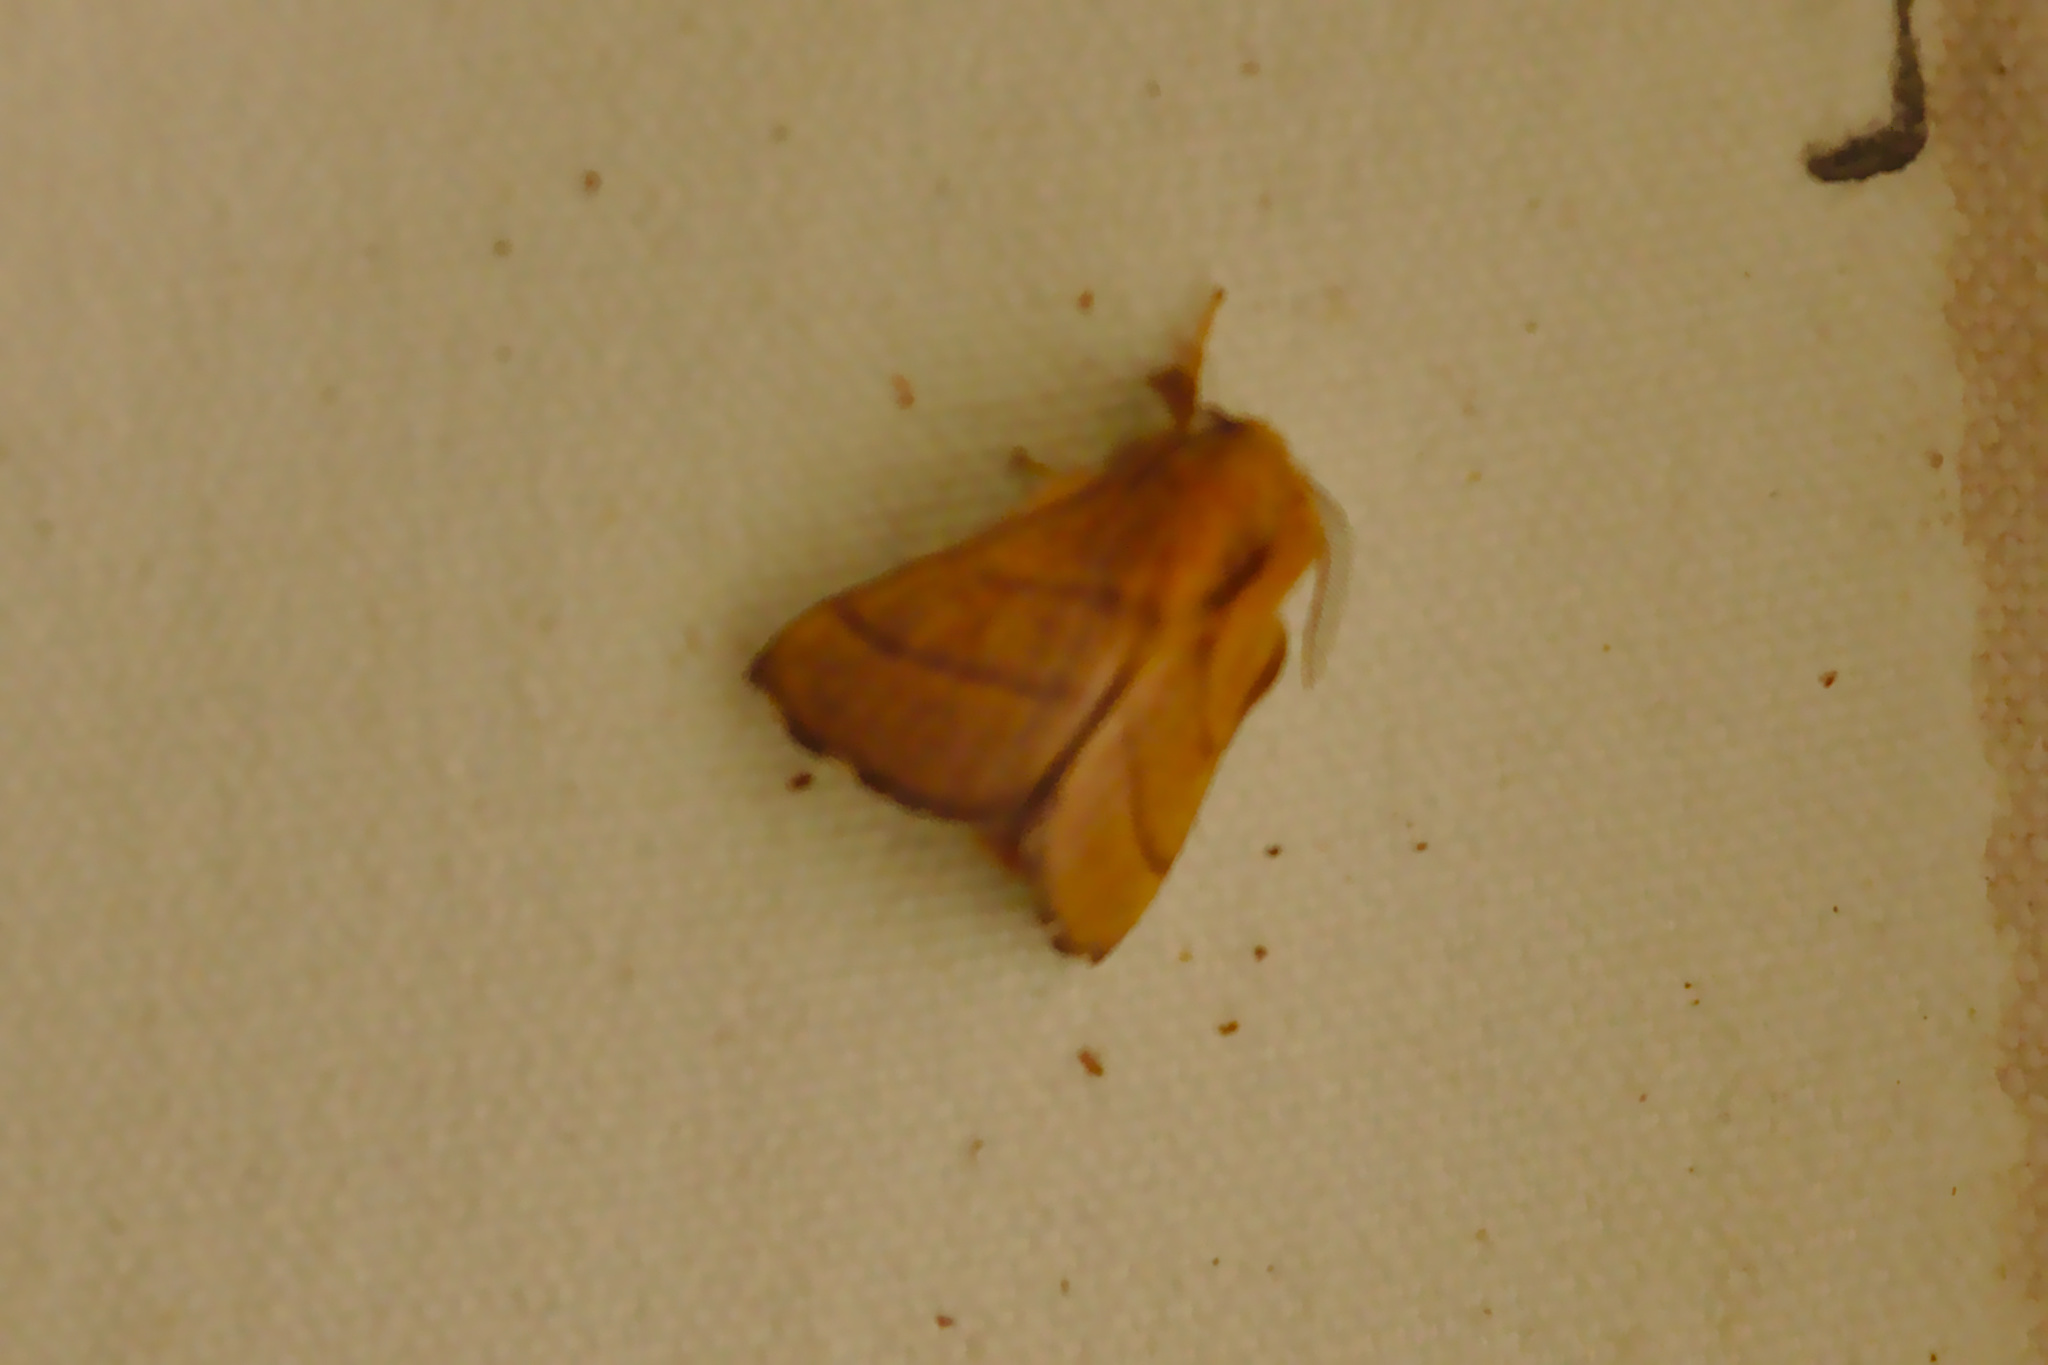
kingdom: Animalia
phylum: Arthropoda
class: Insecta
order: Lepidoptera
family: Lasiocampidae
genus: Malacosoma
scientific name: Malacosoma disstria
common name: Forest tent caterpillar
